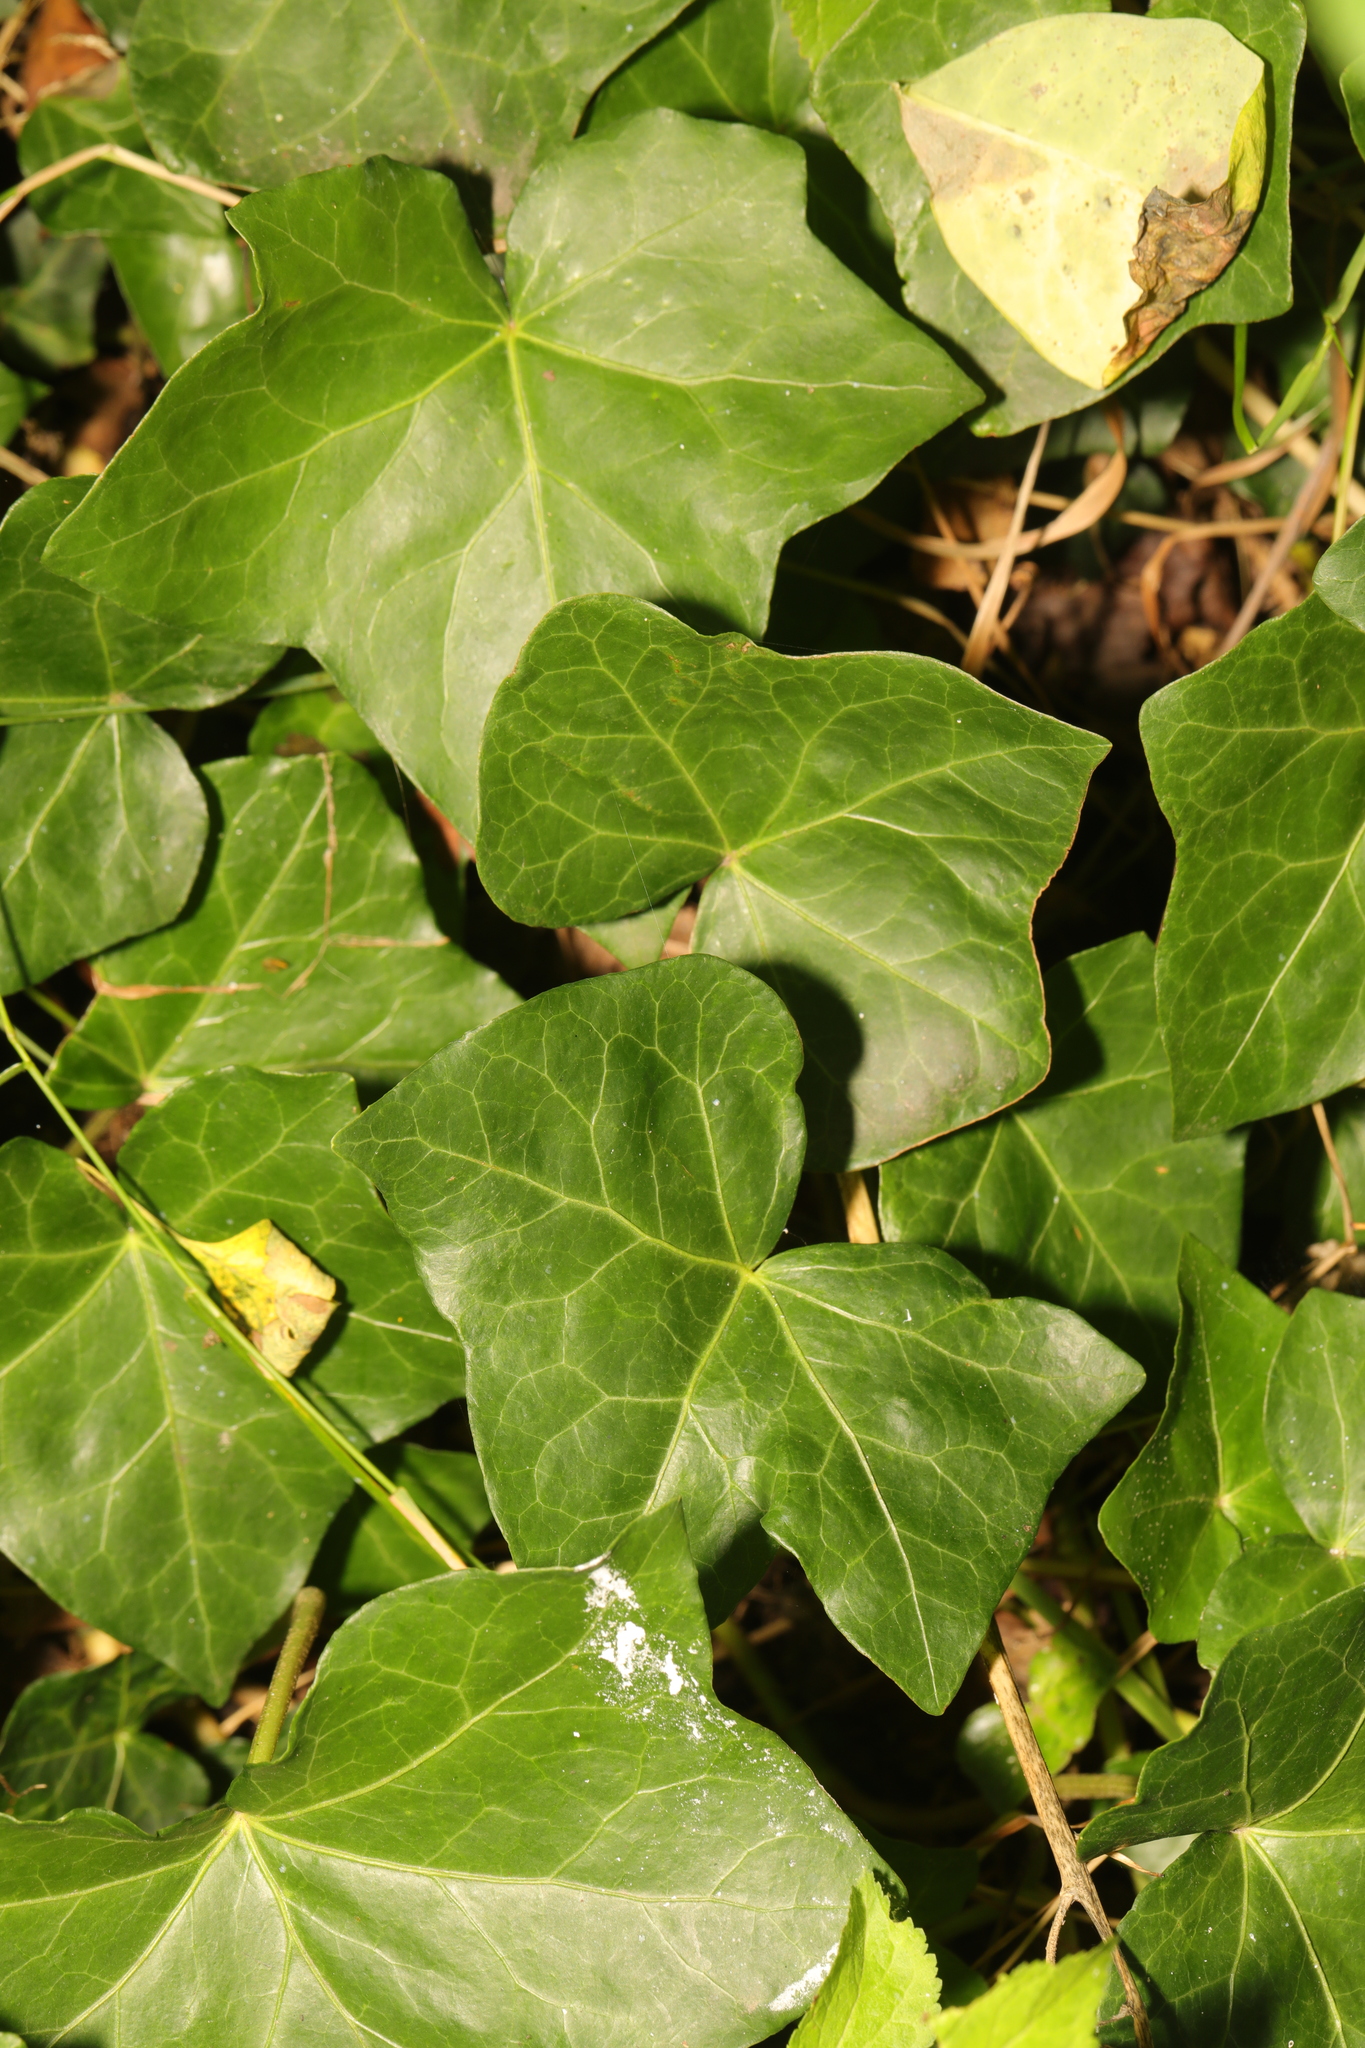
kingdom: Plantae
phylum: Tracheophyta
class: Magnoliopsida
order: Apiales
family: Araliaceae
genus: Hedera
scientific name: Hedera helix
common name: Ivy
